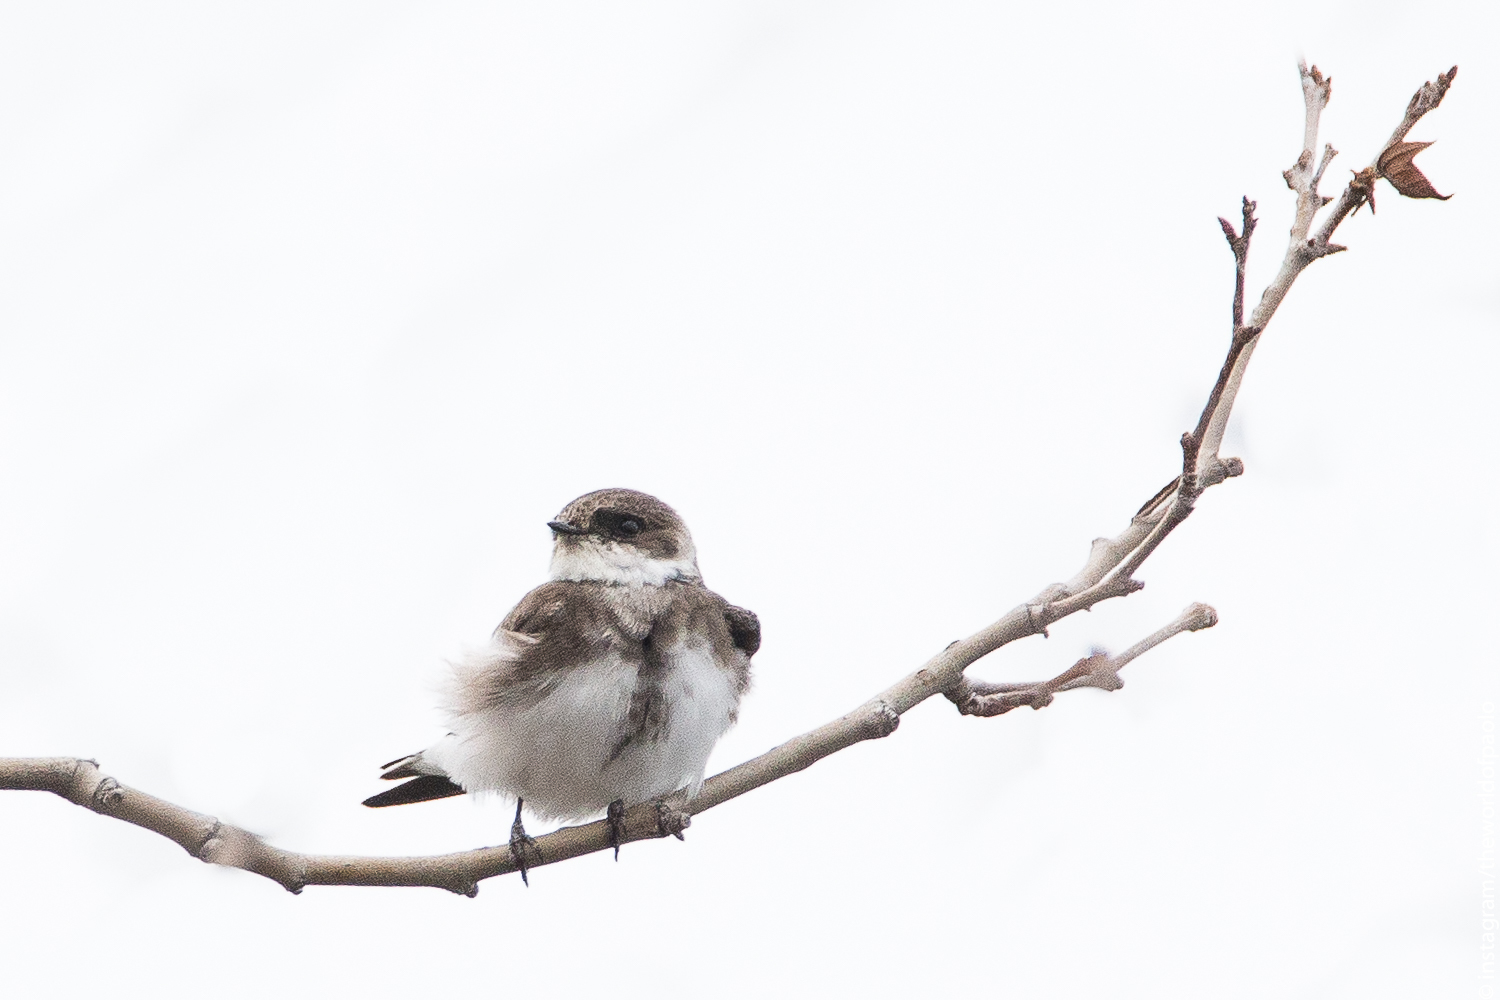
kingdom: Animalia
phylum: Chordata
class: Aves
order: Passeriformes
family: Hirundinidae
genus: Riparia
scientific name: Riparia riparia
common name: Sand martin
